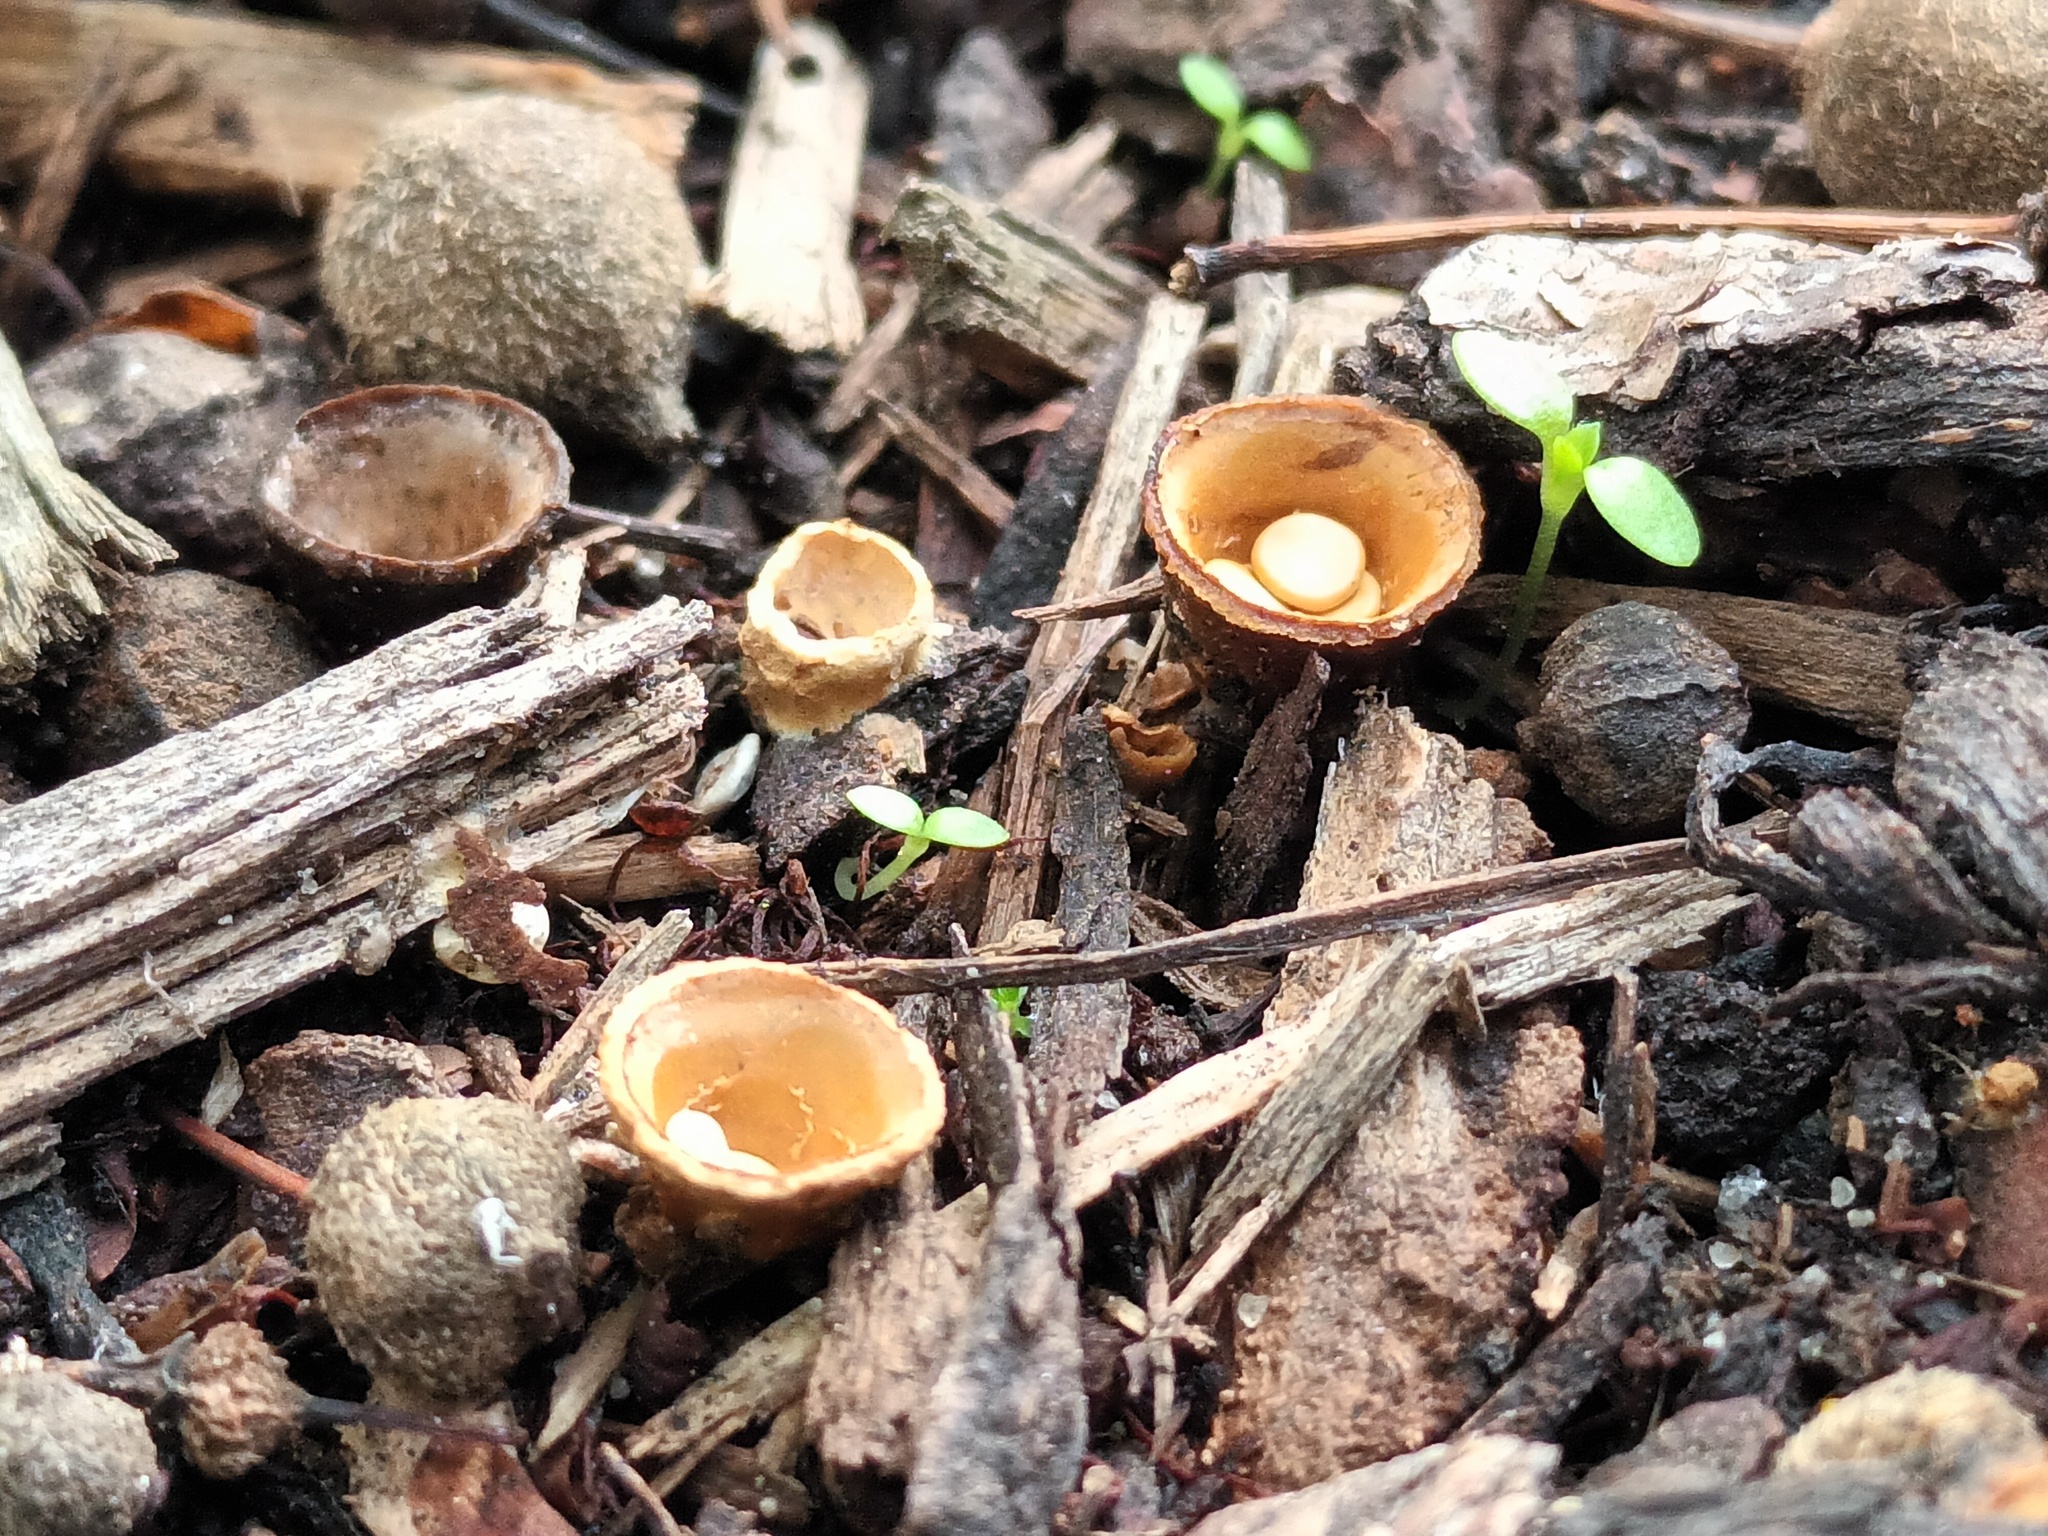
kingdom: Fungi
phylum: Basidiomycota
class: Agaricomycetes
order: Agaricales
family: Nidulariaceae
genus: Crucibulum
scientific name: Crucibulum laeve
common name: Common bird's nest
